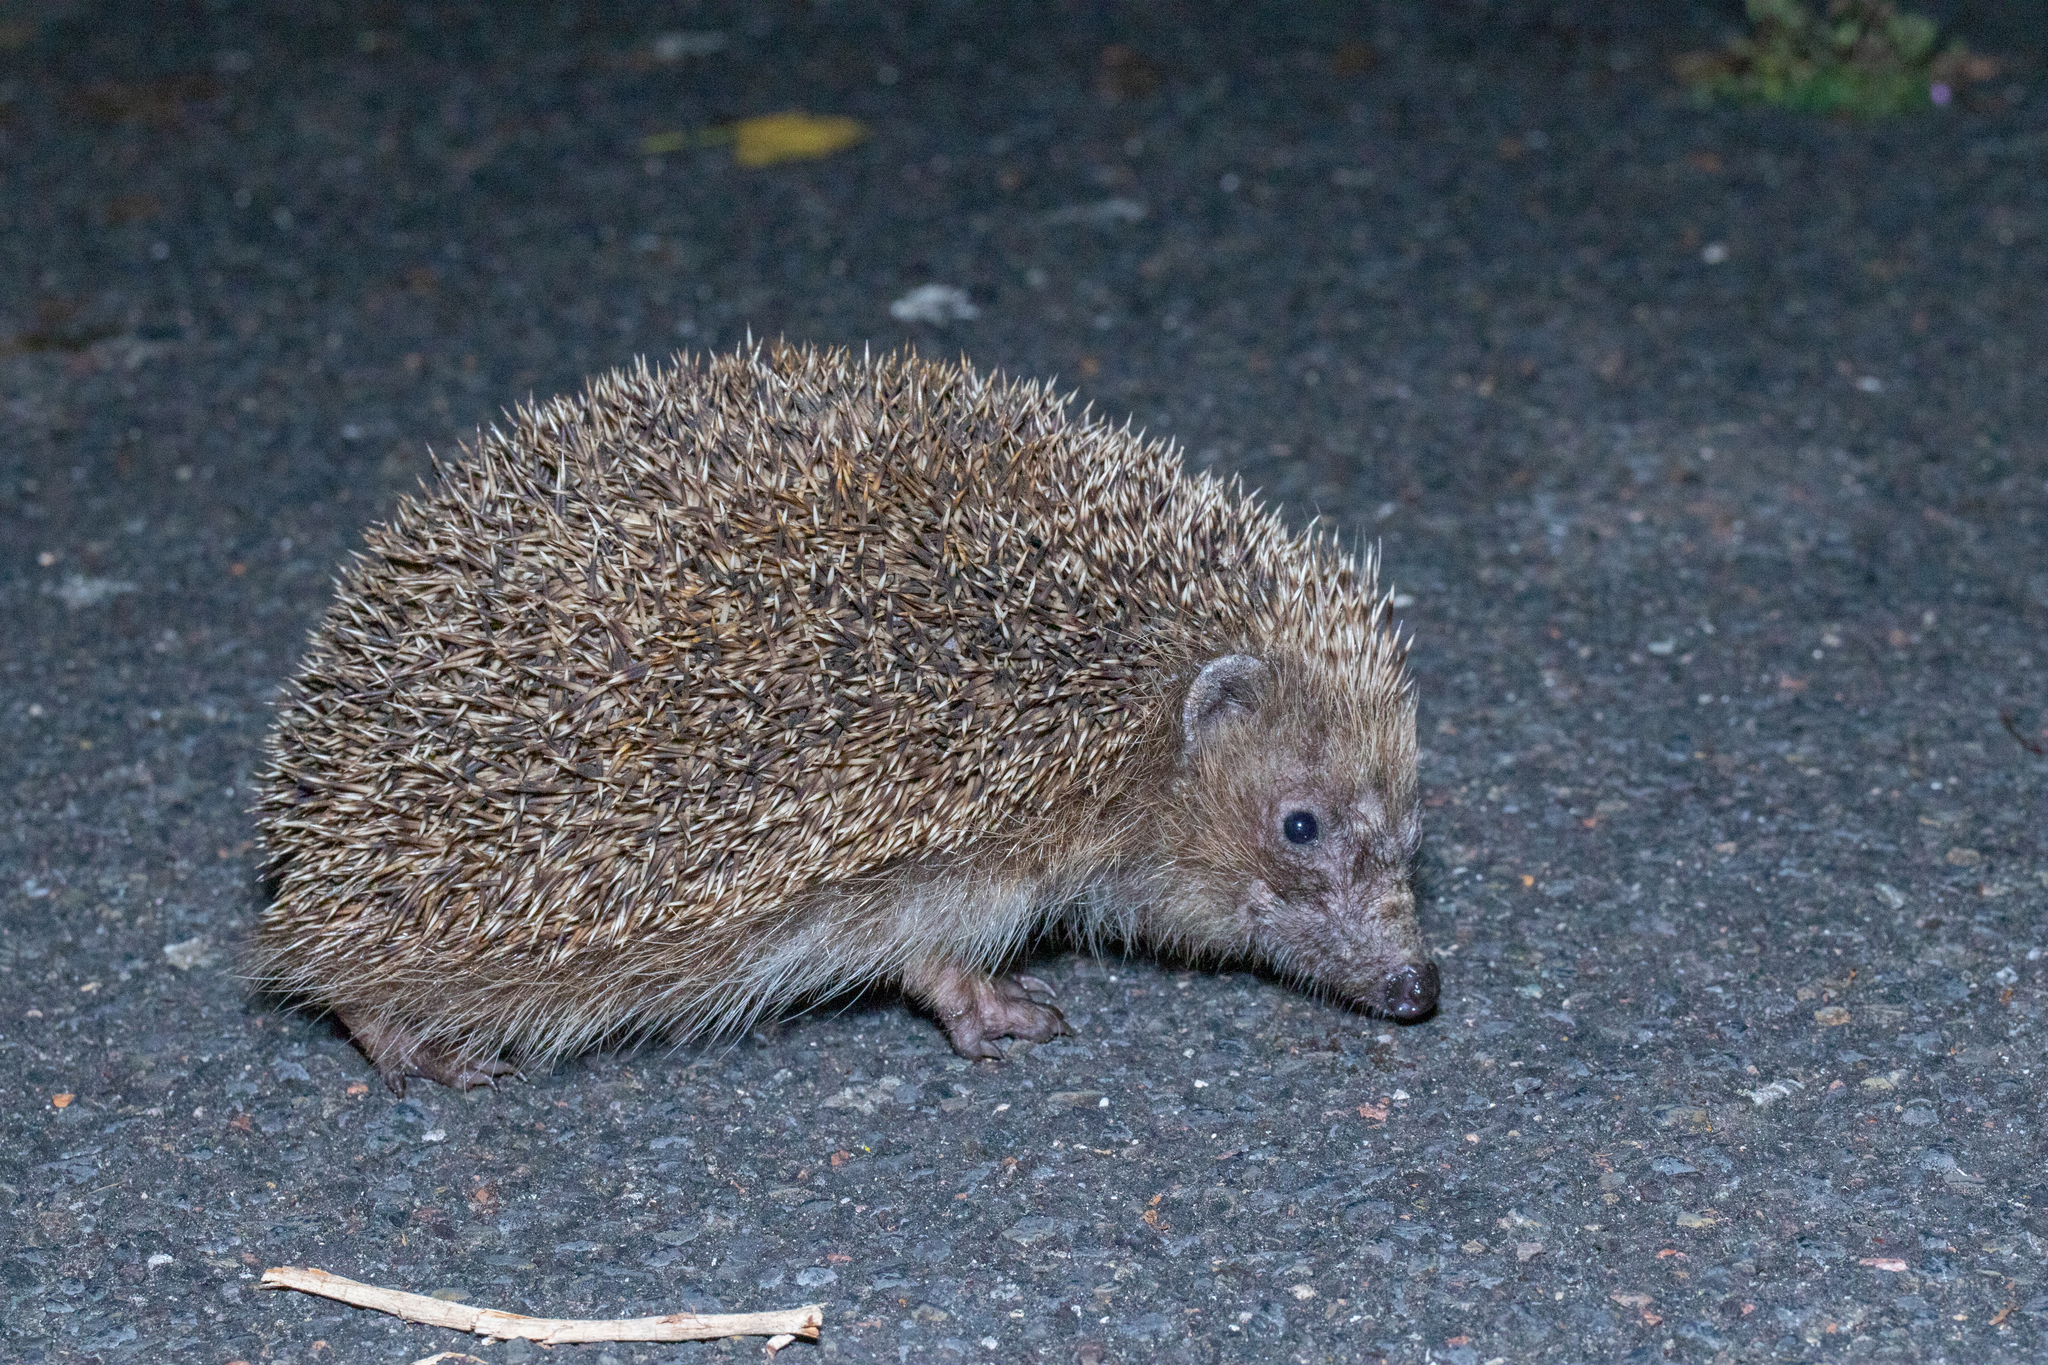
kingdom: Animalia
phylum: Chordata
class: Mammalia
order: Erinaceomorpha
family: Erinaceidae
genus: Erinaceus
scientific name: Erinaceus europaeus
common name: West european hedgehog
